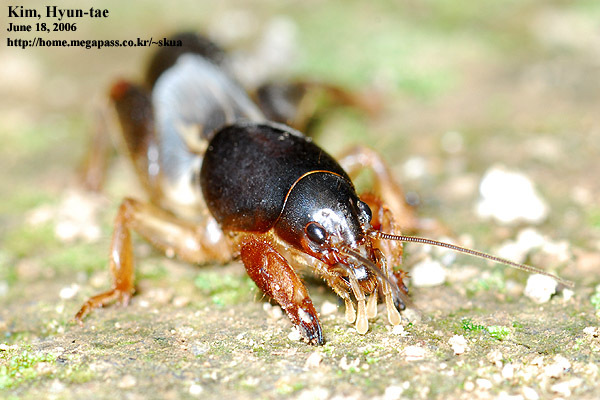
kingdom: Animalia
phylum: Arthropoda
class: Insecta
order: Orthoptera
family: Gryllotalpidae
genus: Gryllotalpa
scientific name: Gryllotalpa orientalis
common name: Grasshopper
